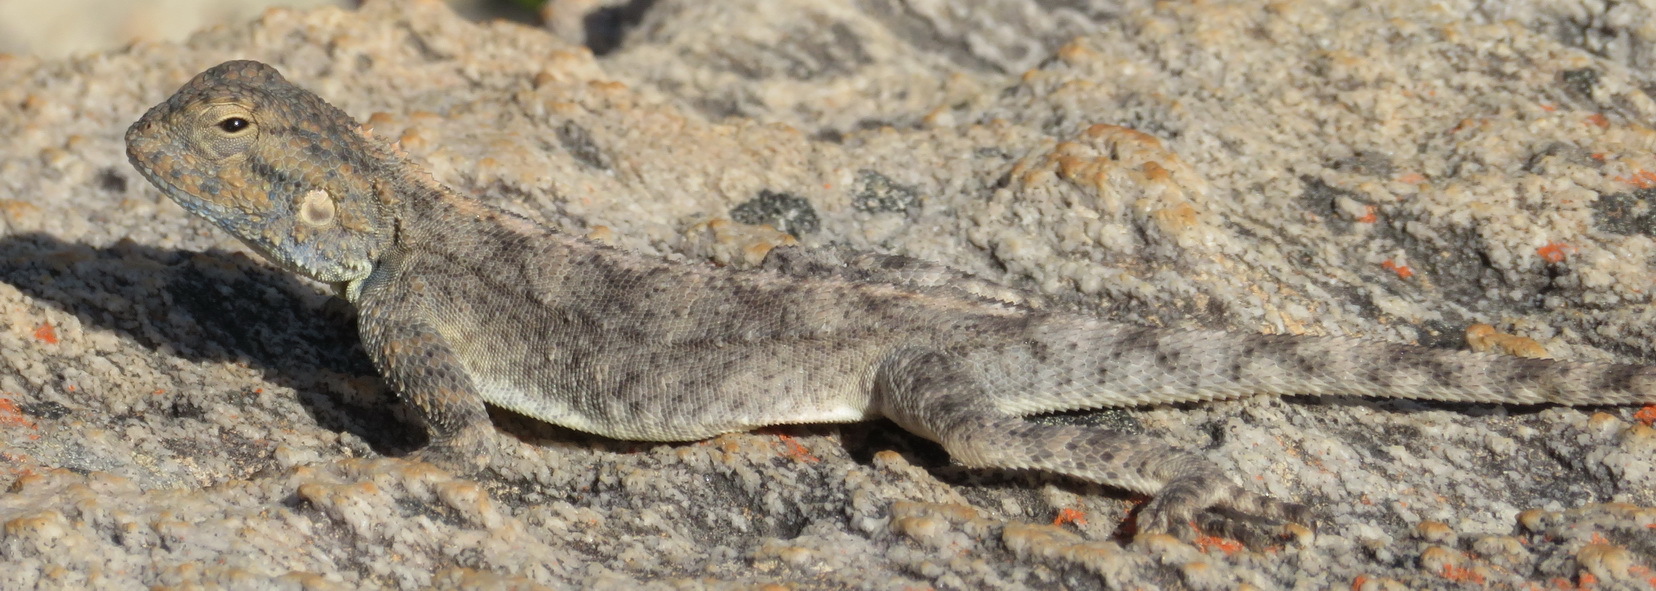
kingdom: Animalia
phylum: Chordata
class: Squamata
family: Agamidae
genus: Agama
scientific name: Agama atra
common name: Southern african rock agama
